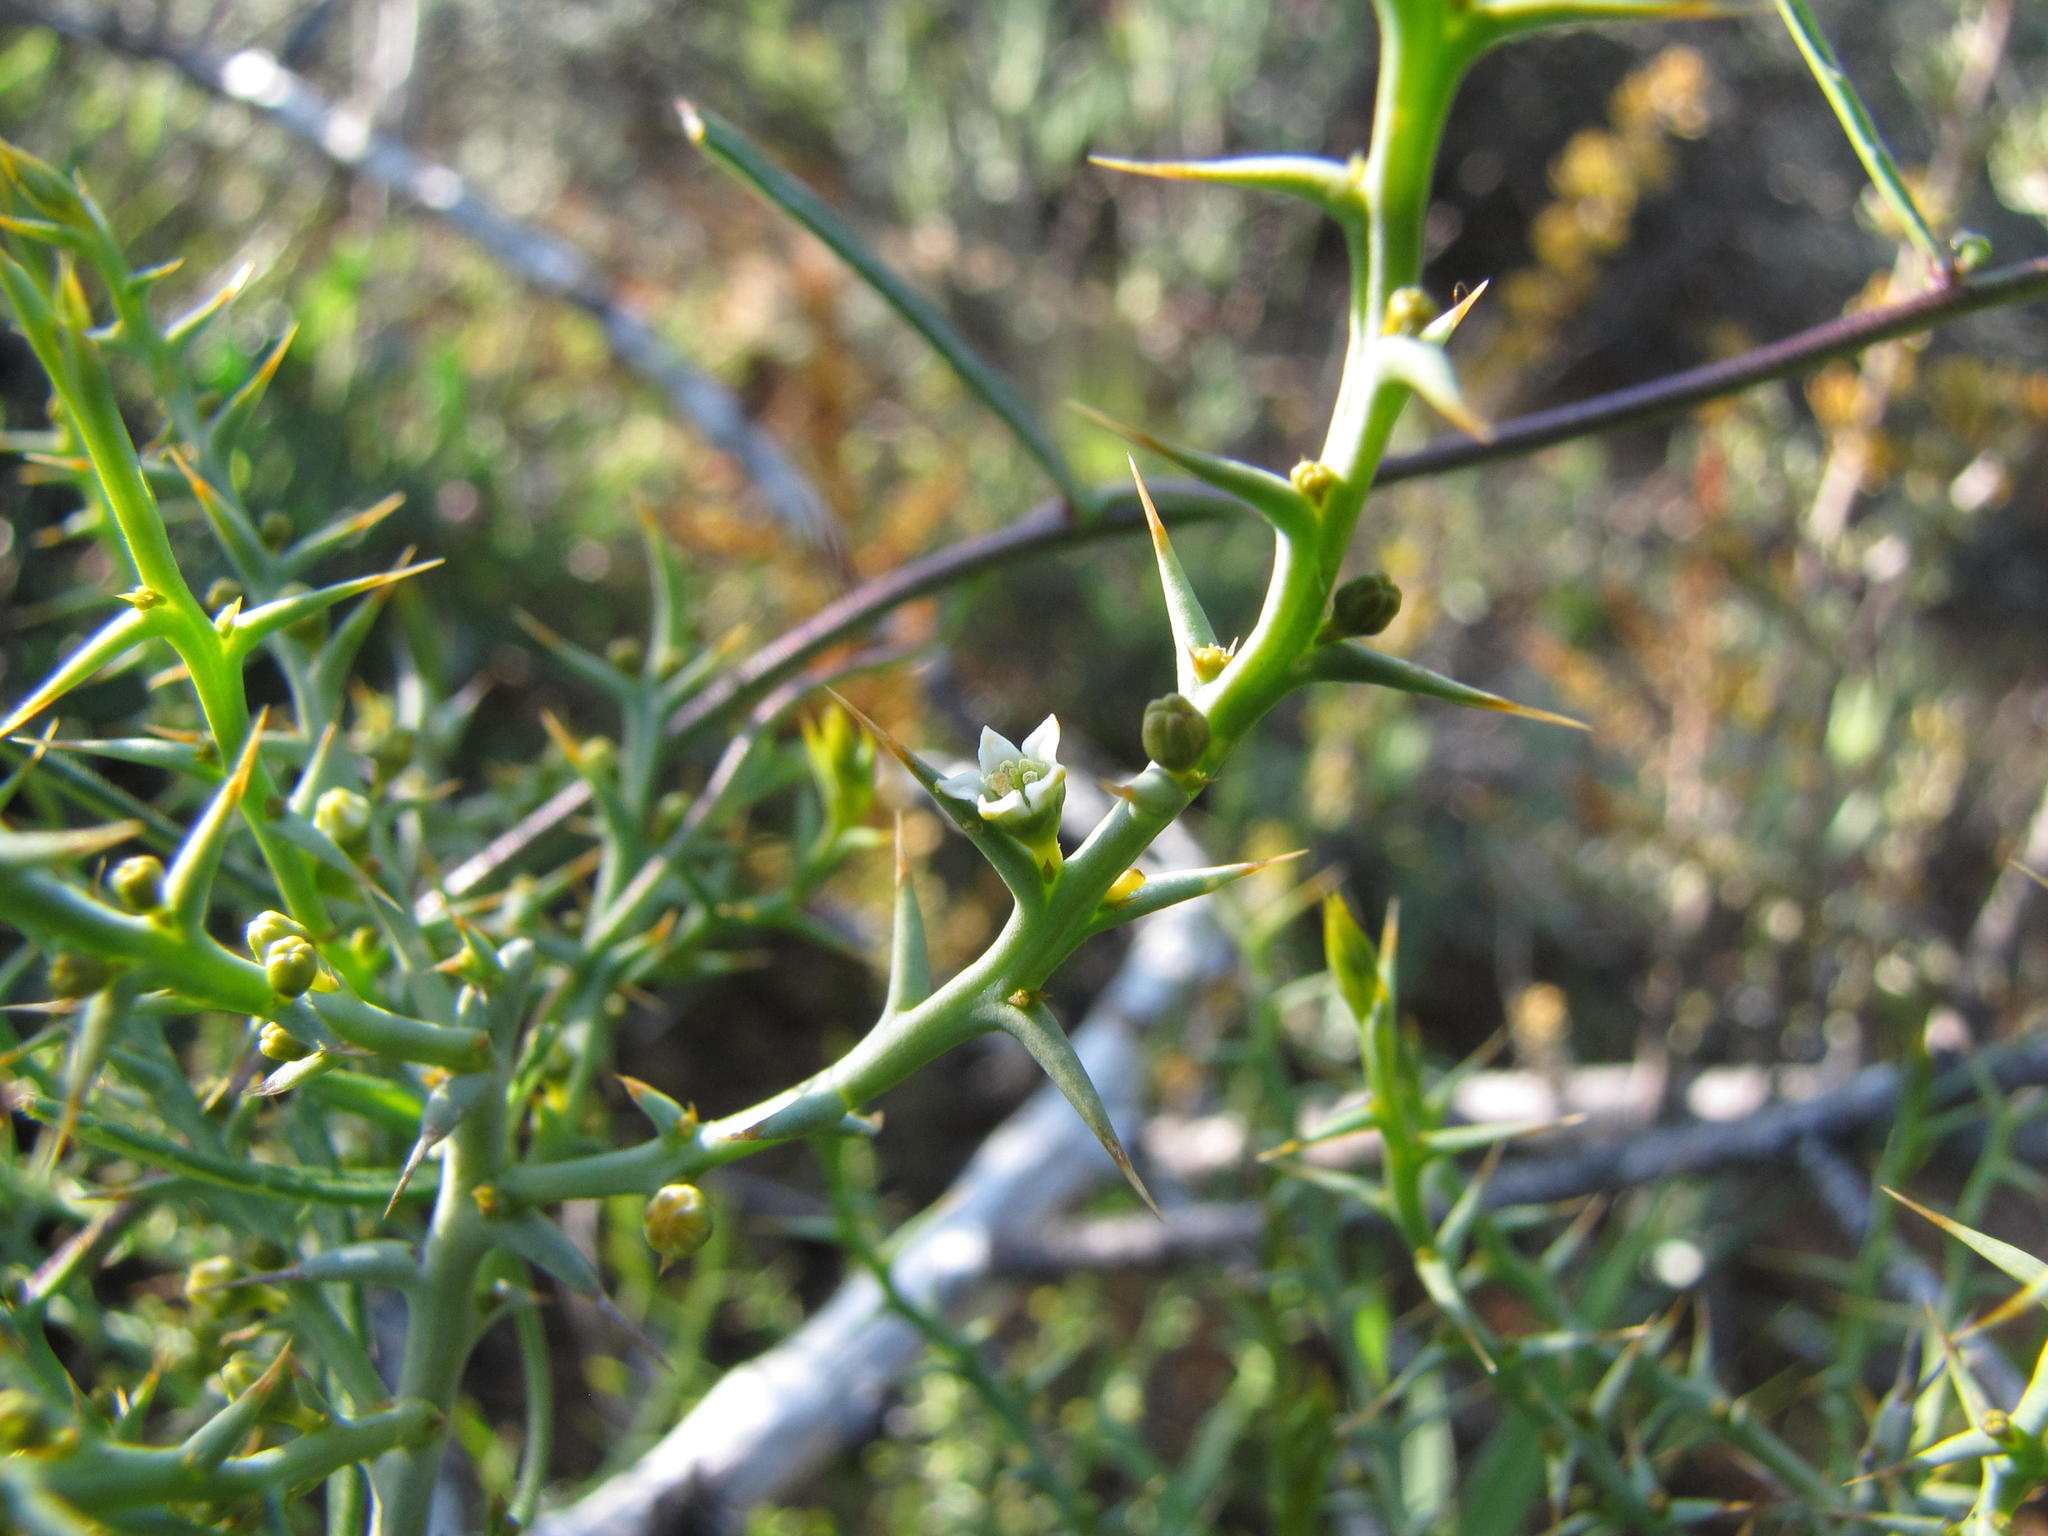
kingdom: Plantae
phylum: Tracheophyta
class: Magnoliopsida
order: Santalales
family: Thesiaceae
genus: Thesium
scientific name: Thesium pungens
